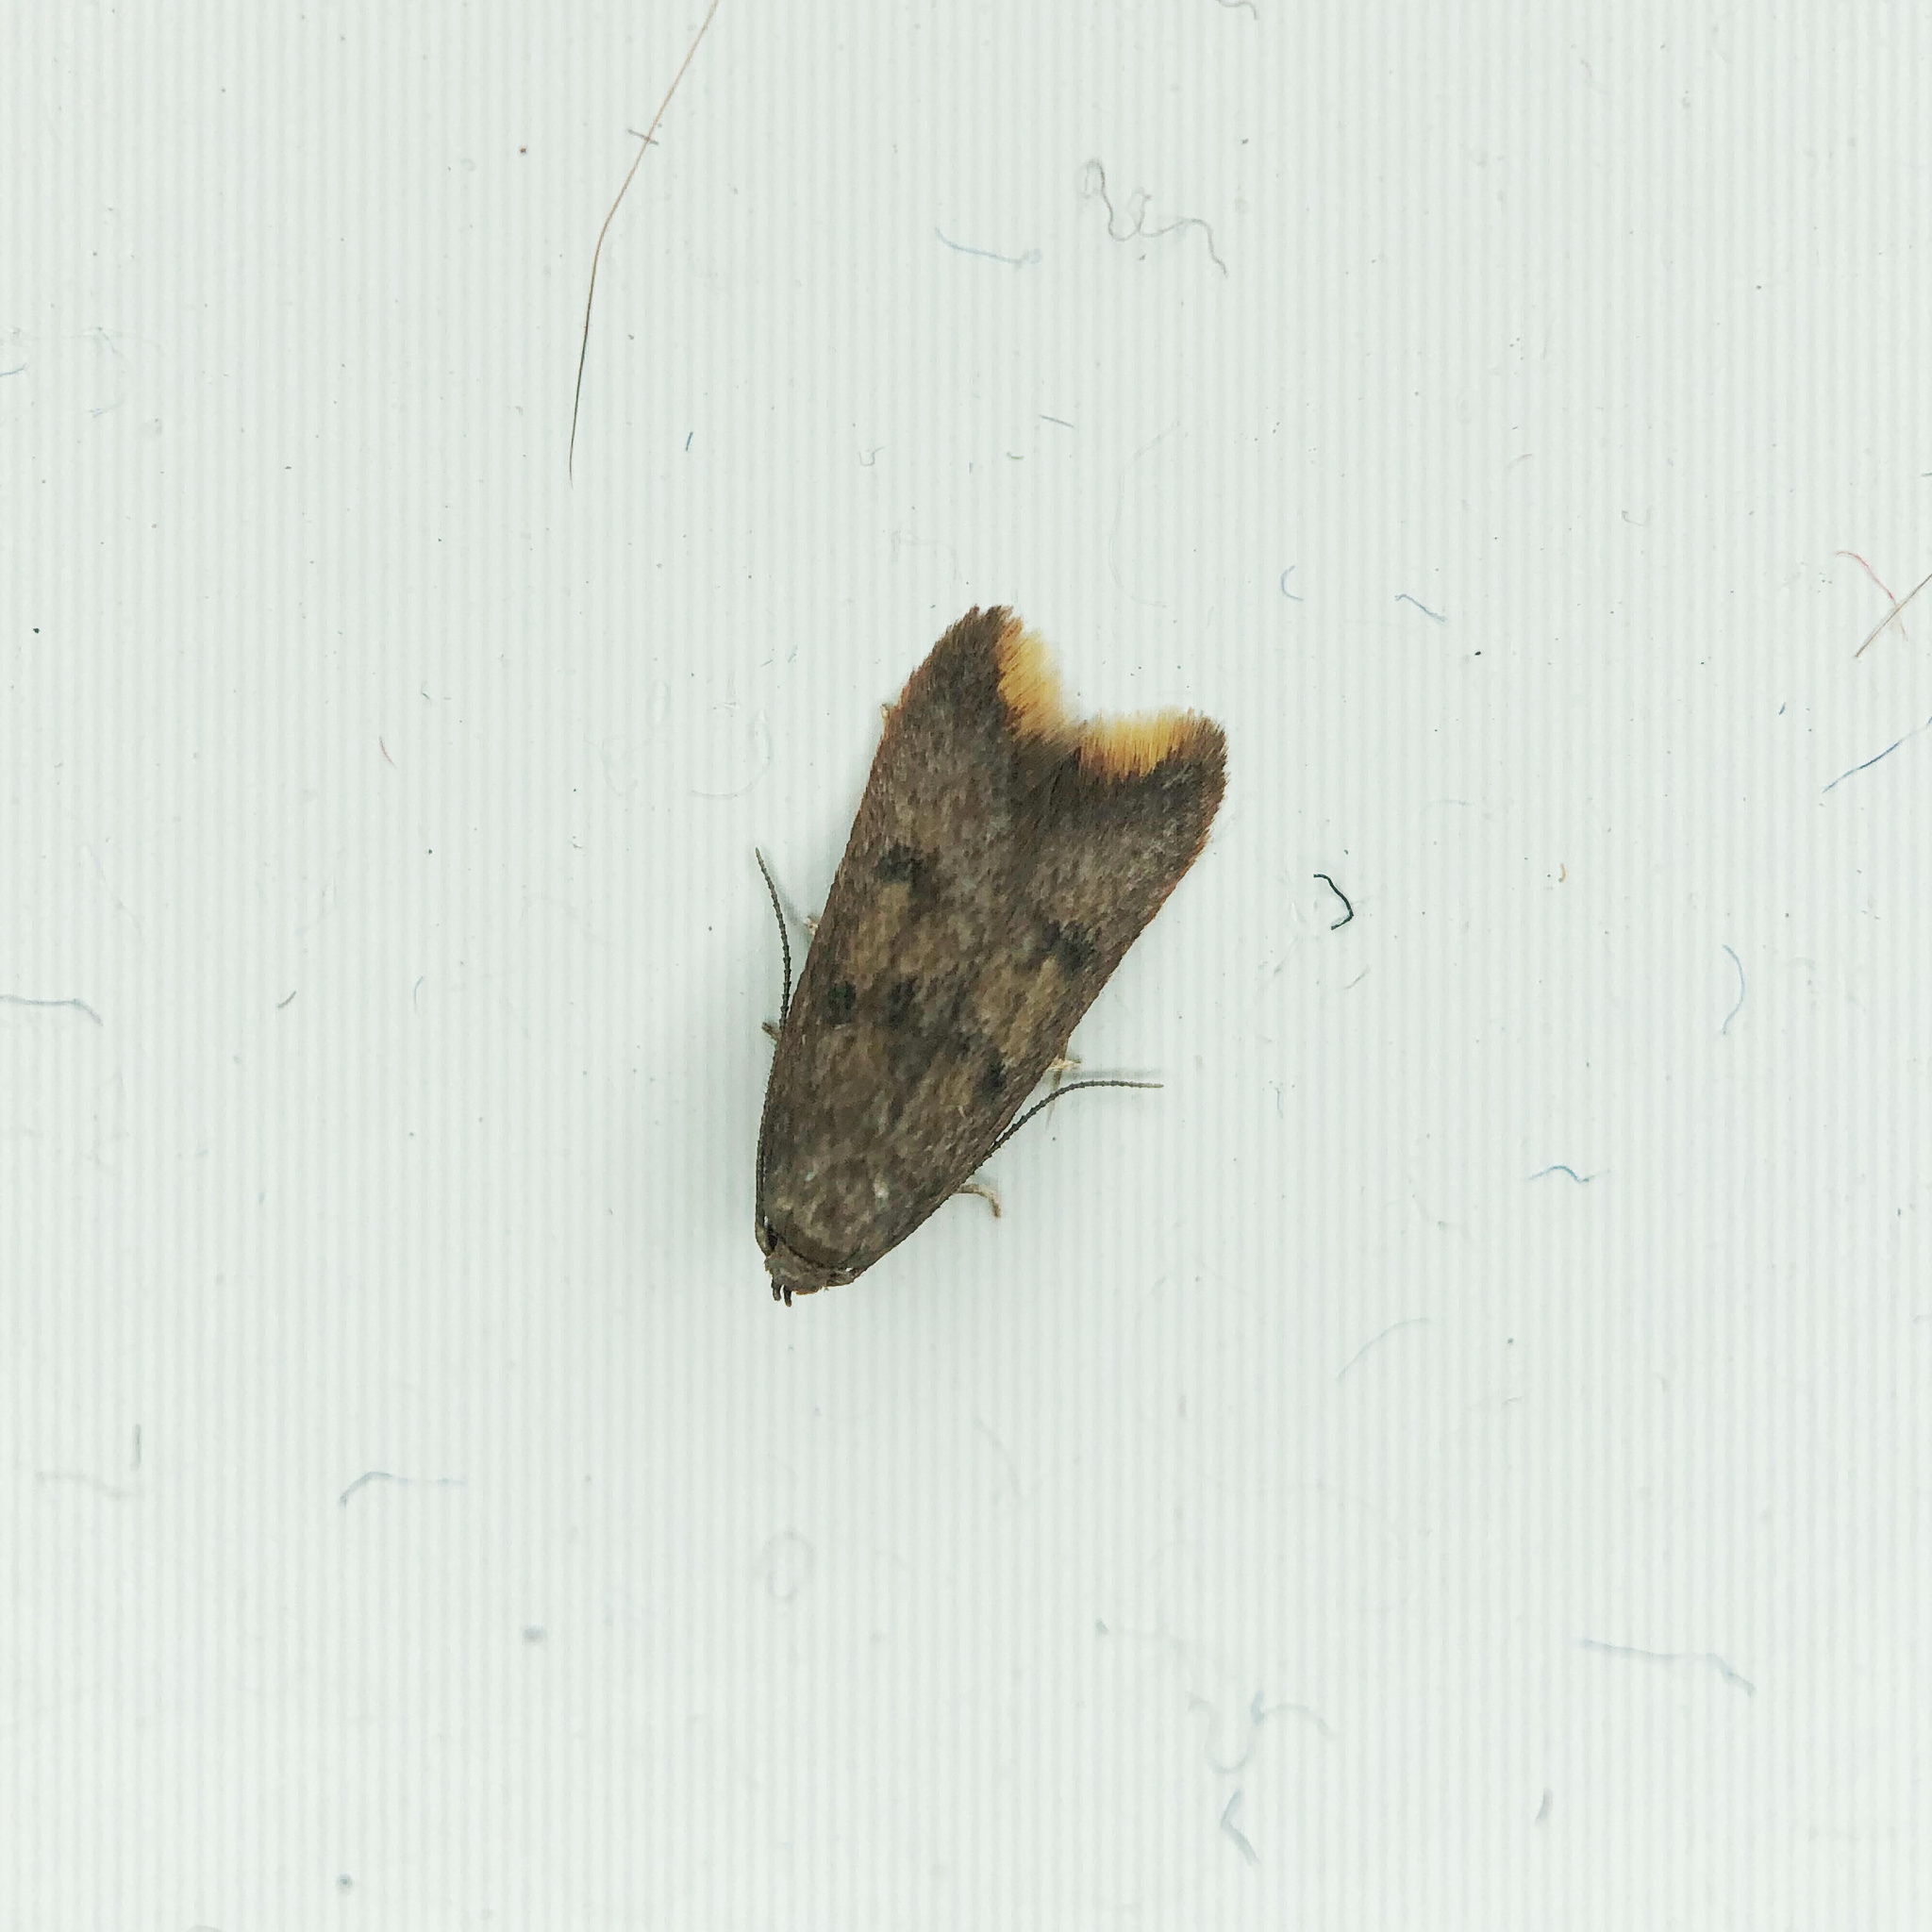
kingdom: Animalia
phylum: Arthropoda
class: Insecta
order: Lepidoptera
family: Oecophoridae
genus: Tachystola
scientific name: Tachystola acroxantha
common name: Ruddy streak
